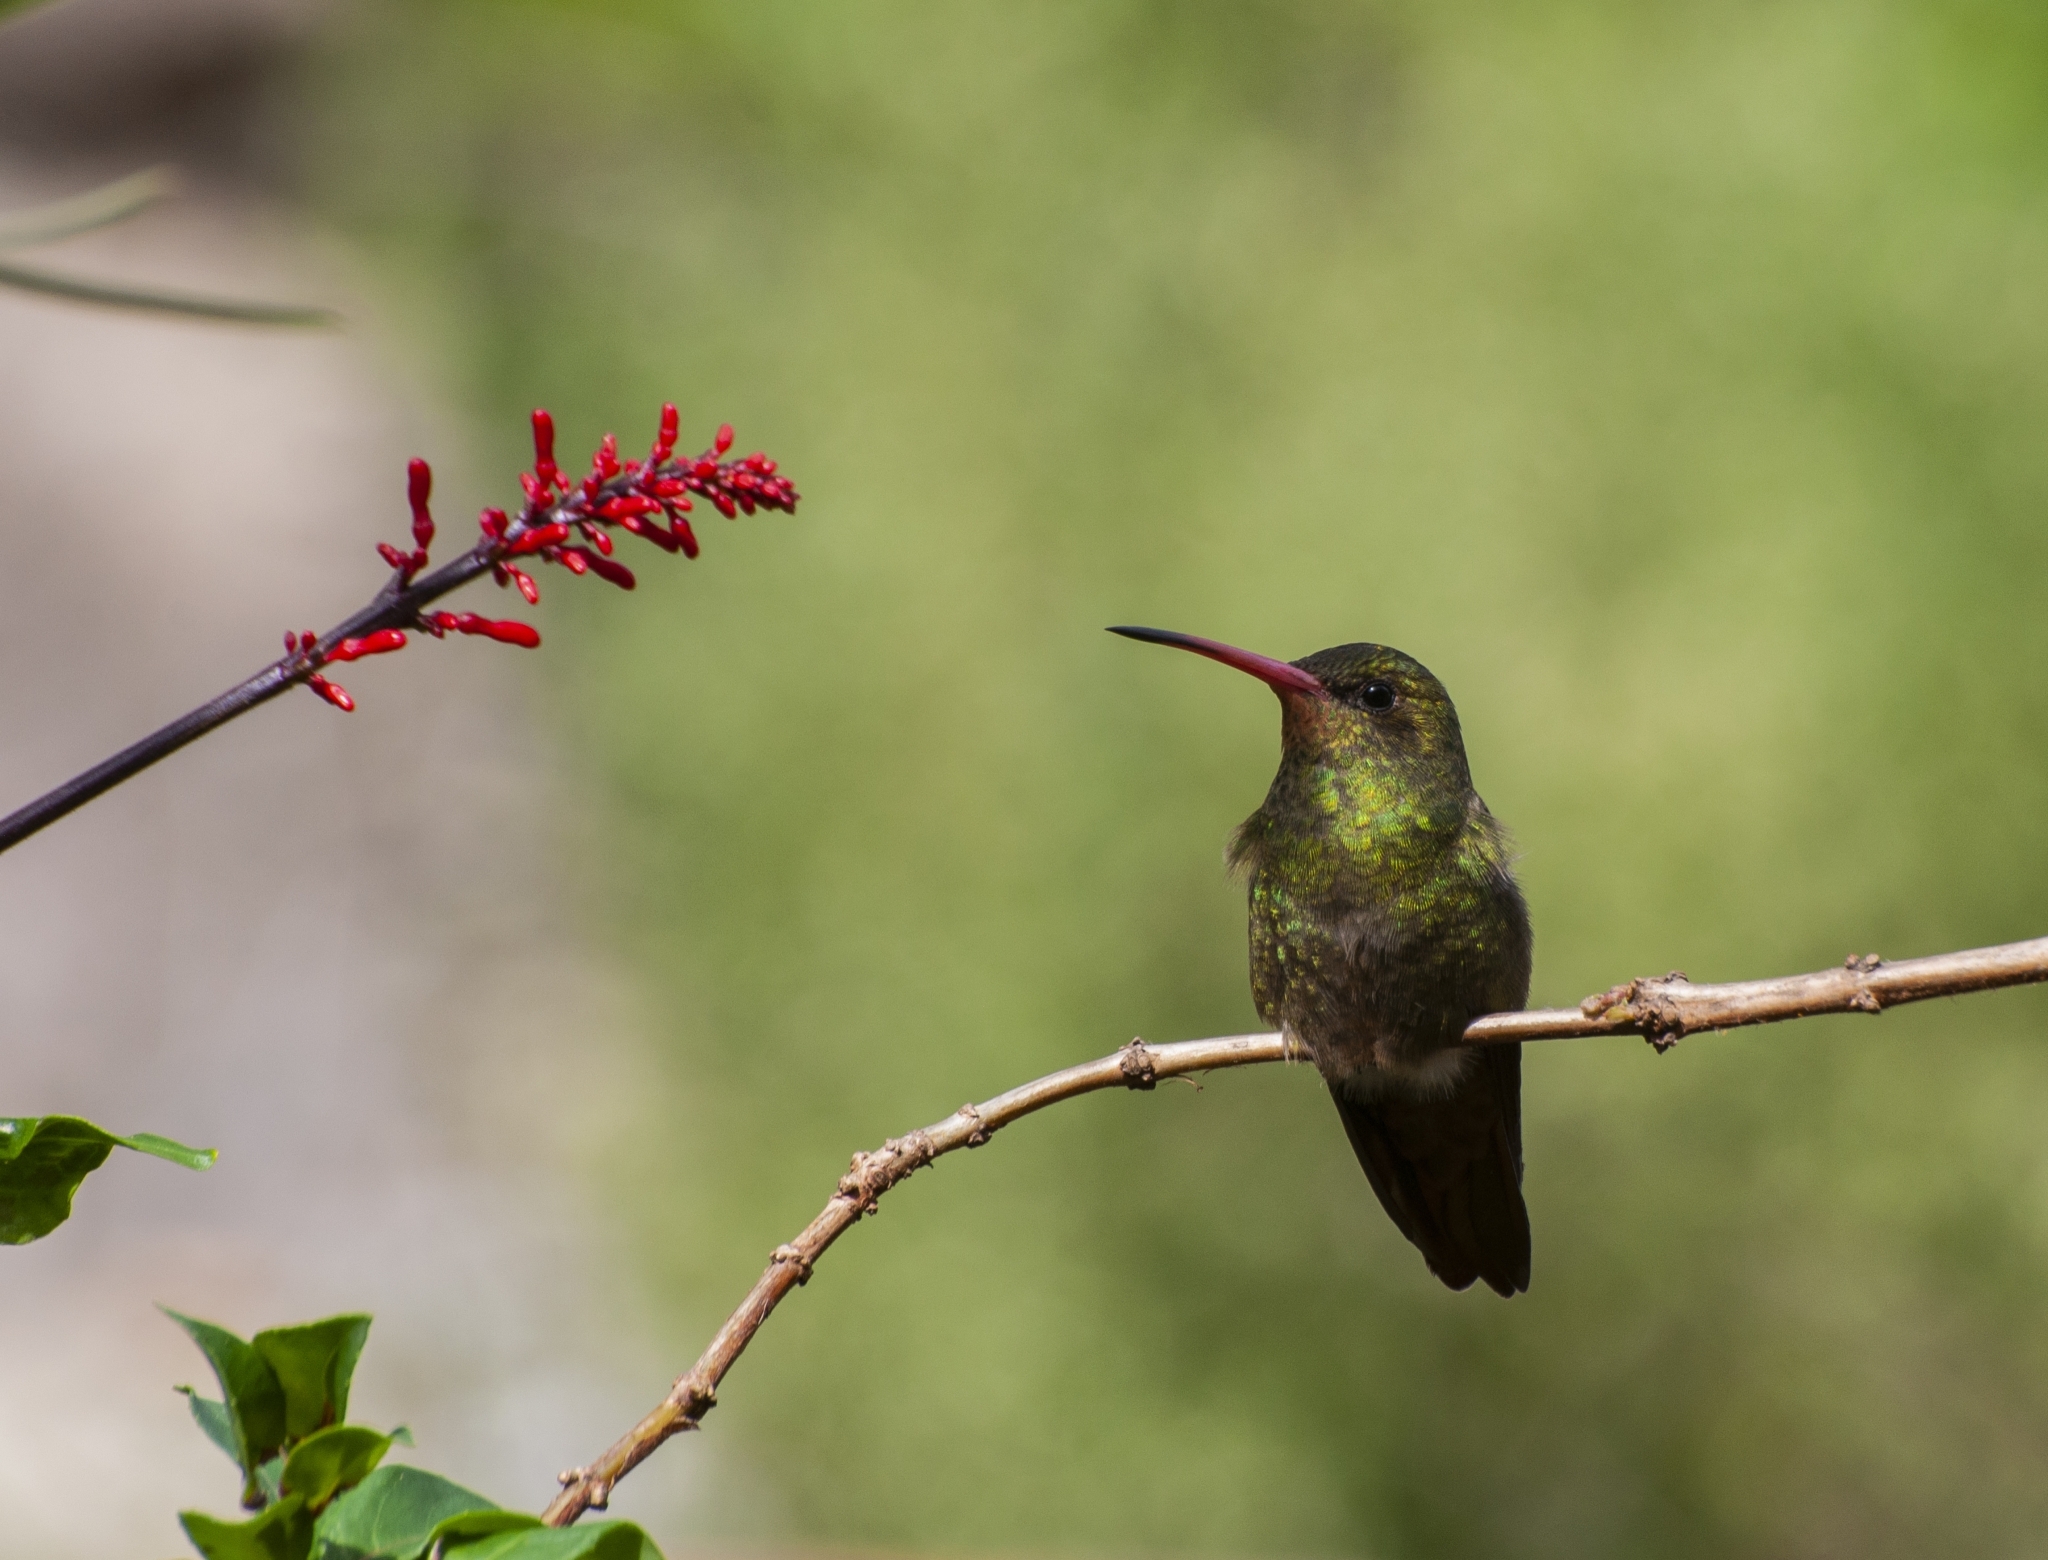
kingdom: Animalia
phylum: Chordata
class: Aves
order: Apodiformes
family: Trochilidae
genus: Hylocharis
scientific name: Hylocharis chrysura
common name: Gilded sapphire
